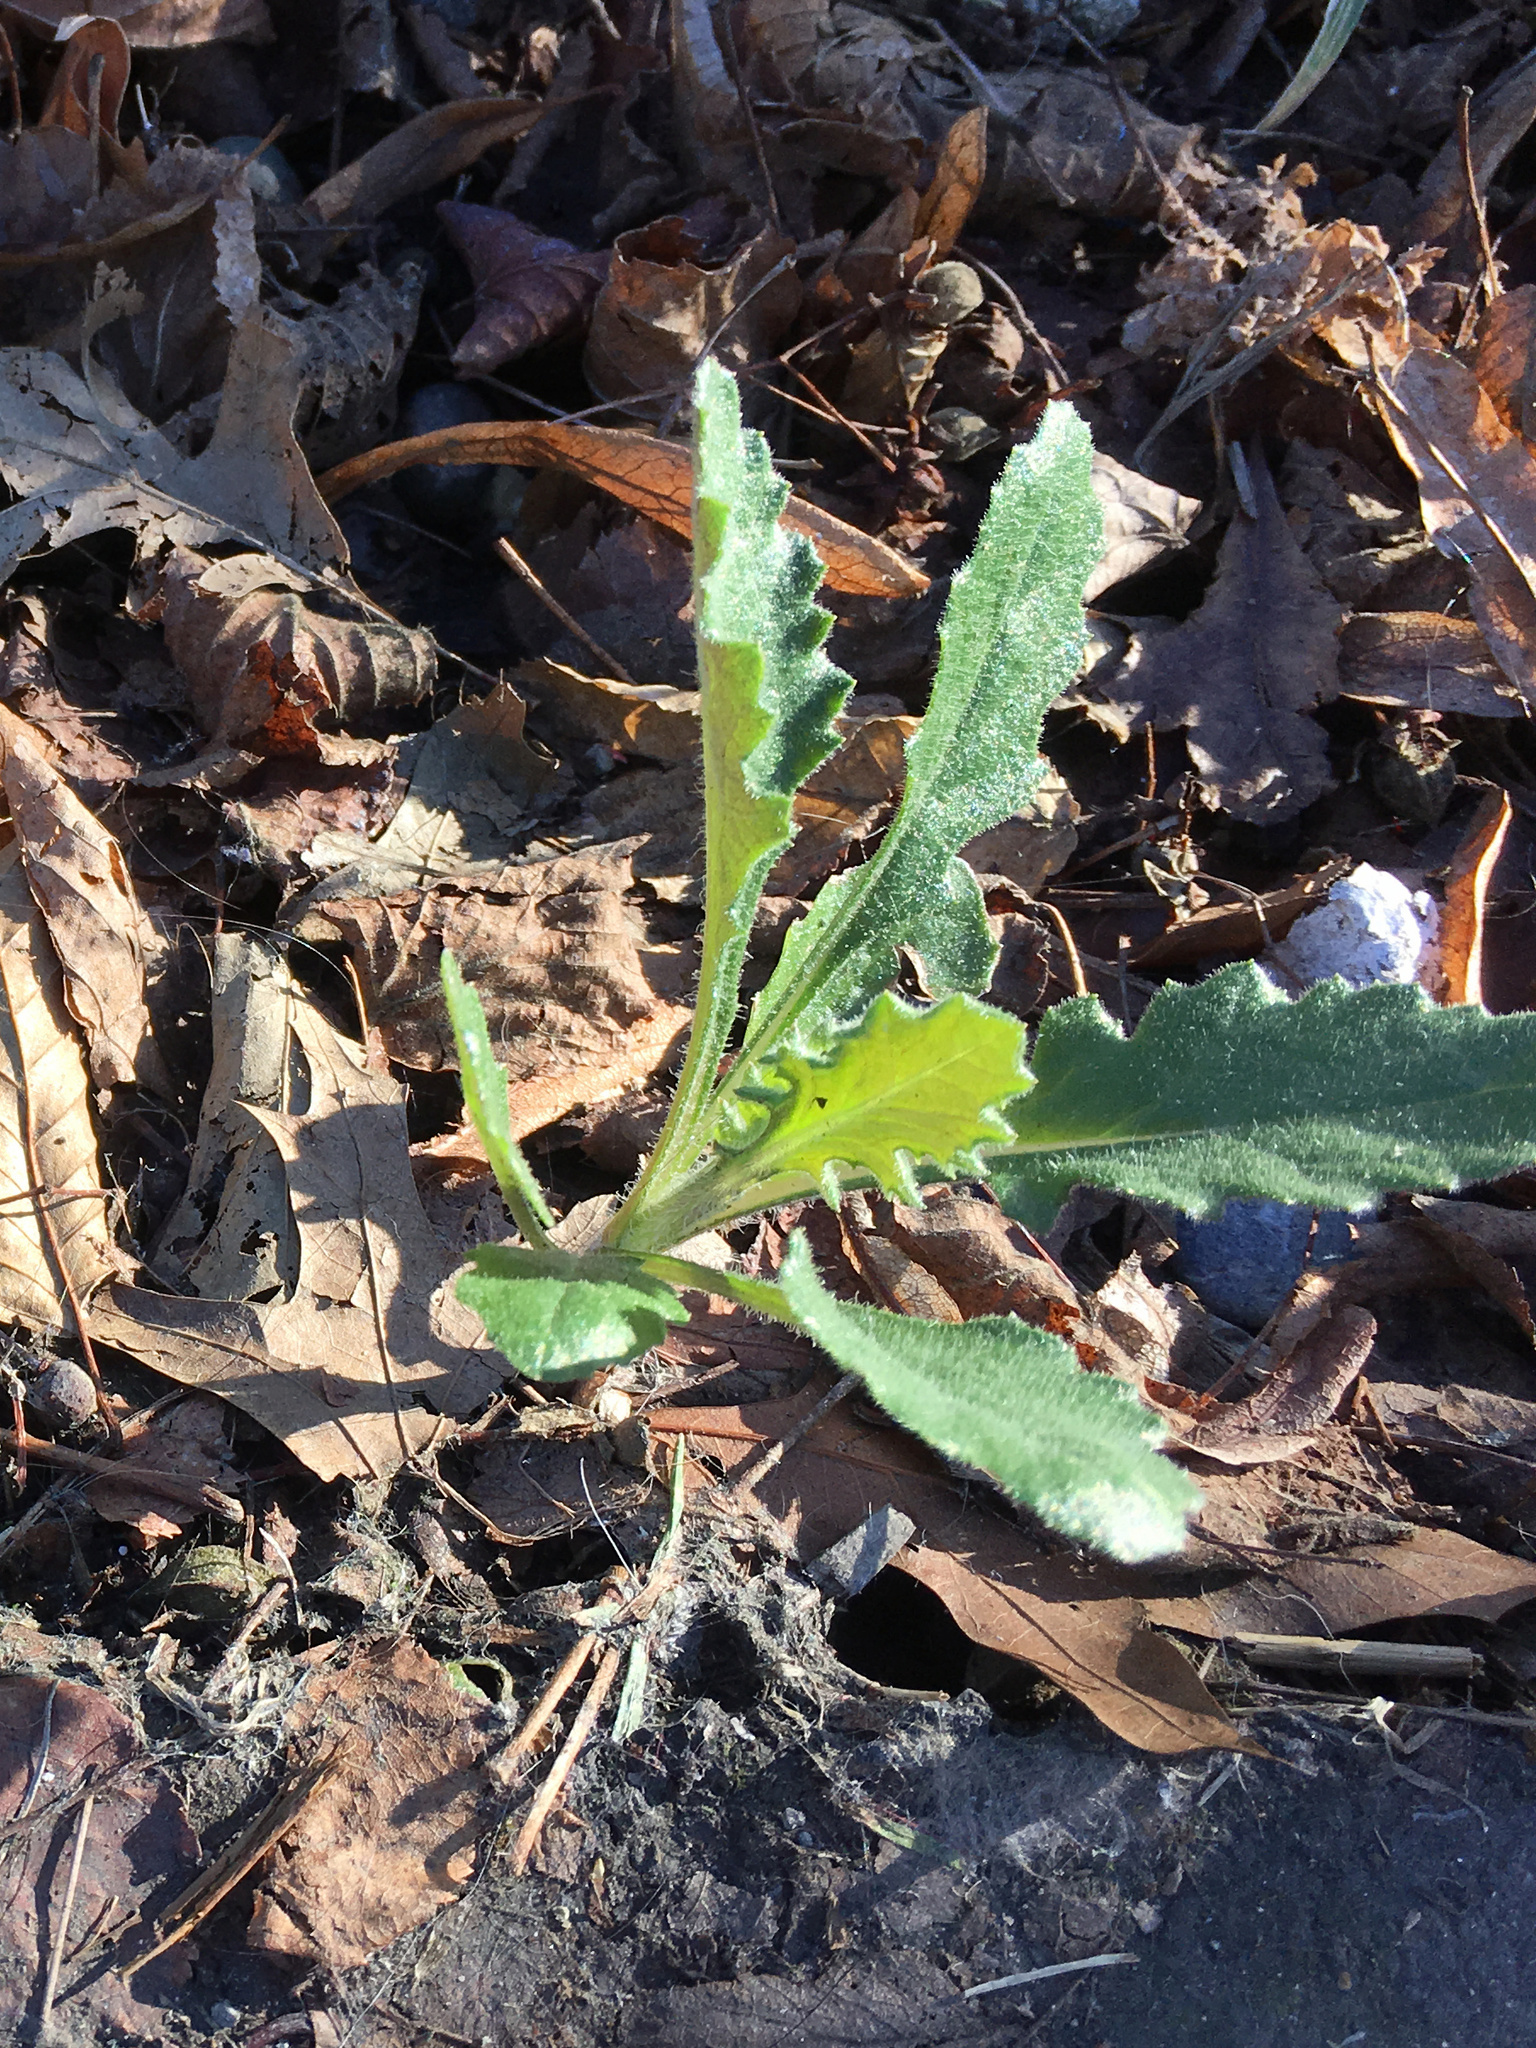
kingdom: Plantae
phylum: Tracheophyta
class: Magnoliopsida
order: Asterales
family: Asteraceae
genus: Senecio
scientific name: Senecio glomeratus
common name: Cutleaf burnweed
